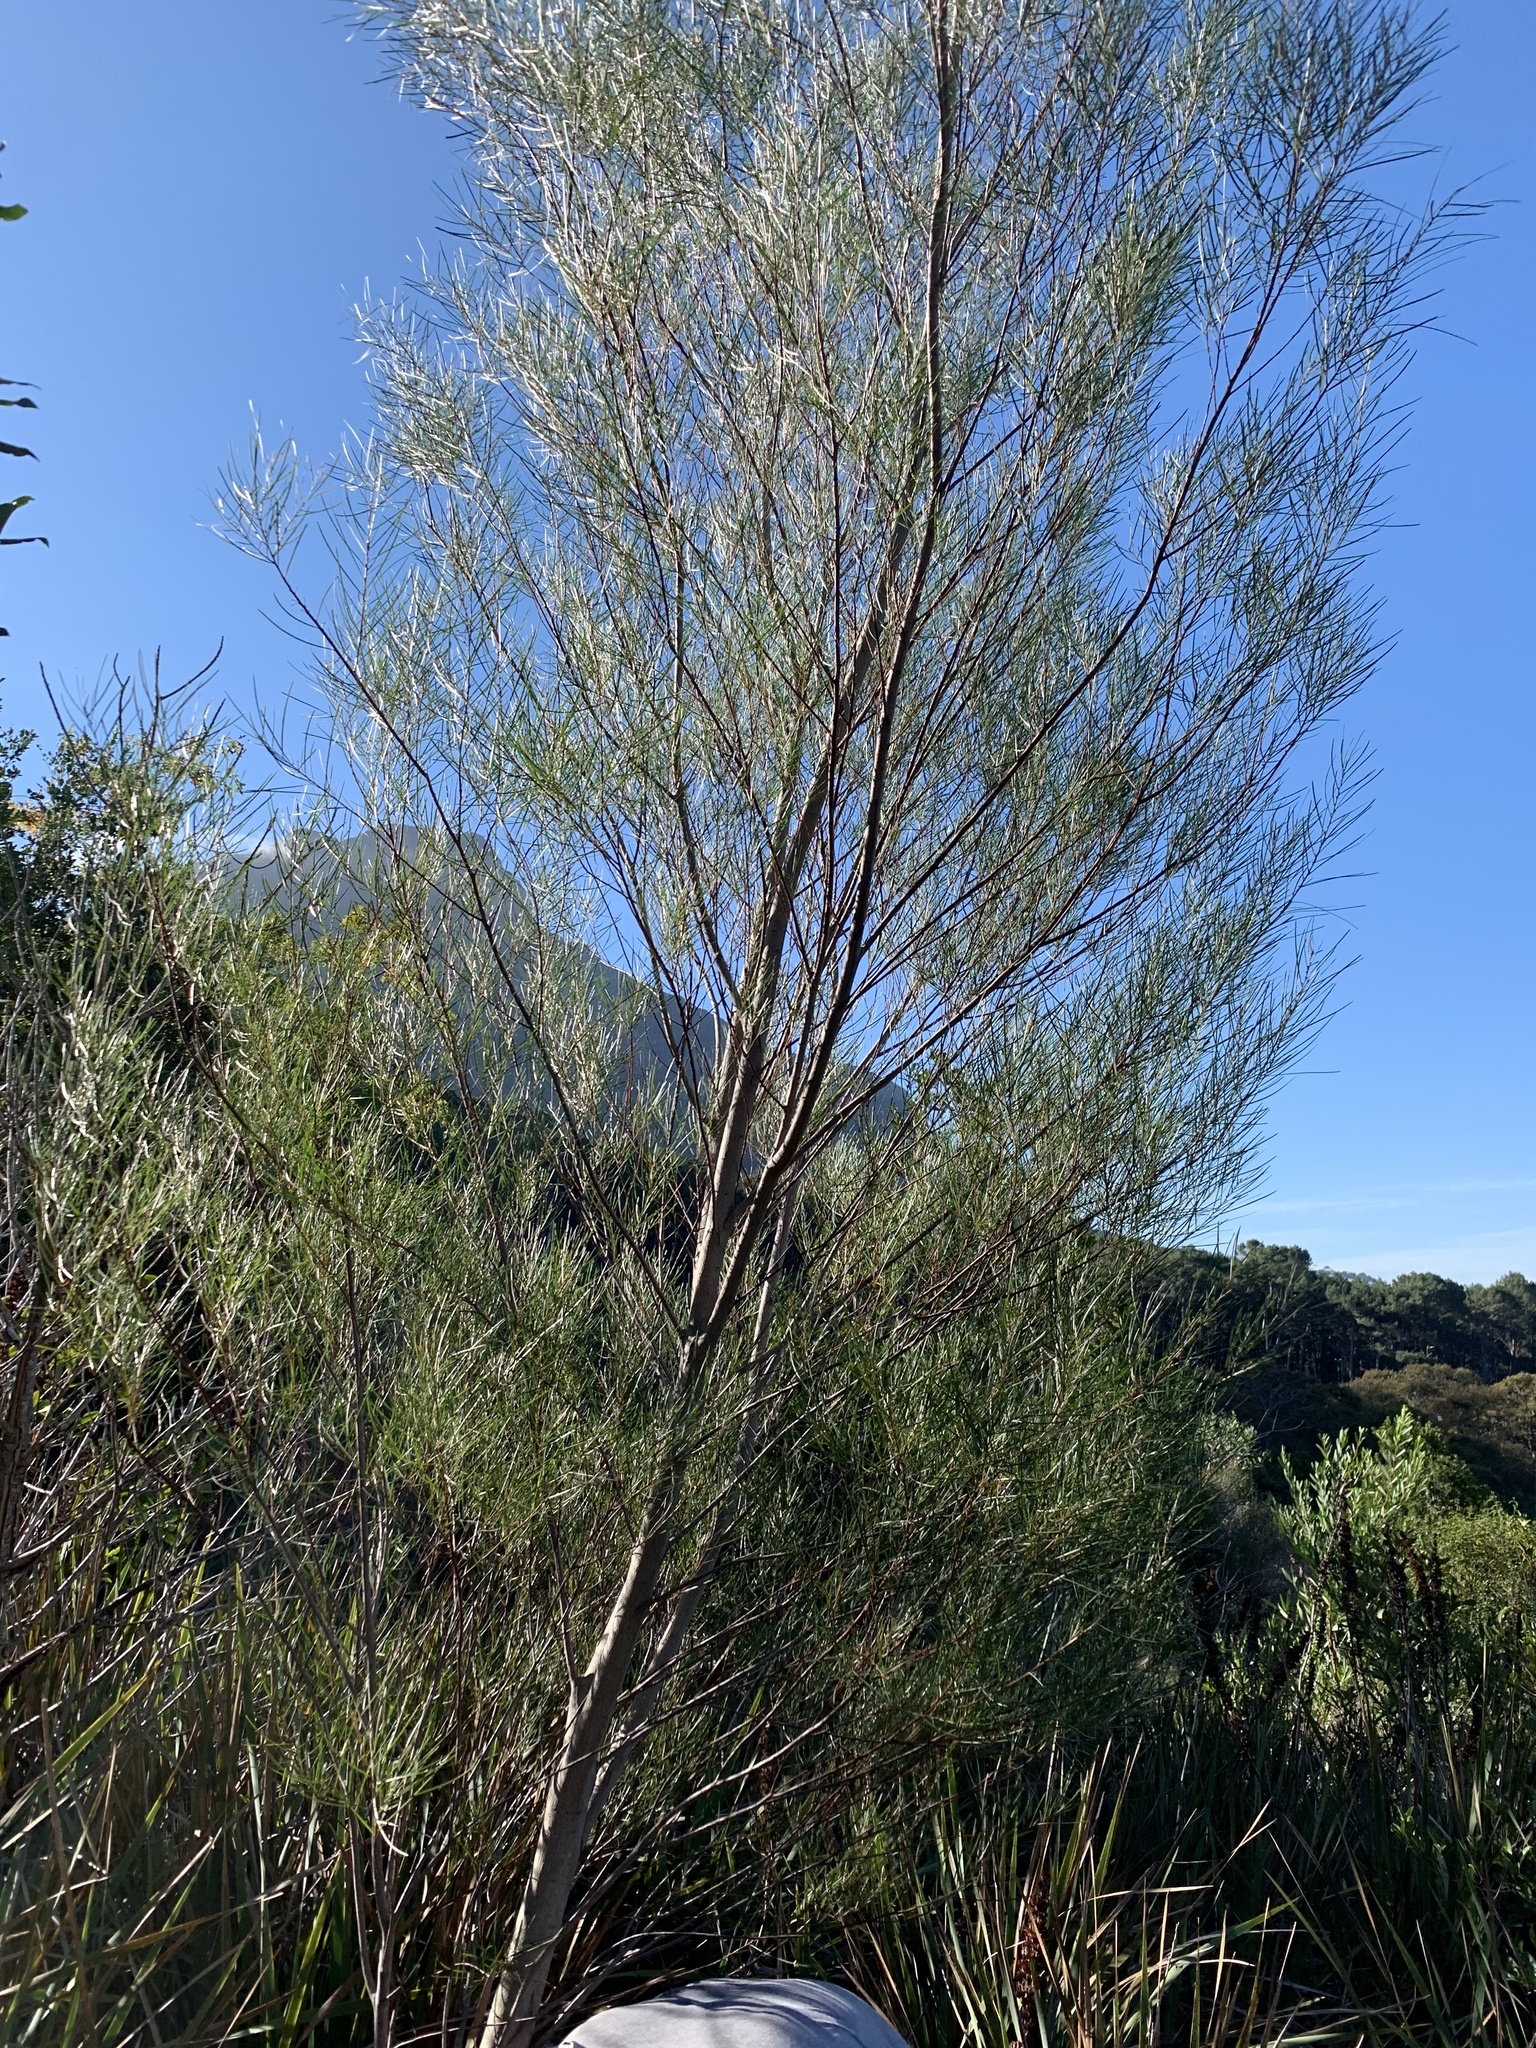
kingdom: Plantae
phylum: Tracheophyta
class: Magnoliopsida
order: Fabales
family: Fabaceae
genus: Acacia
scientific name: Acacia viscidula
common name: Sticky wattle
